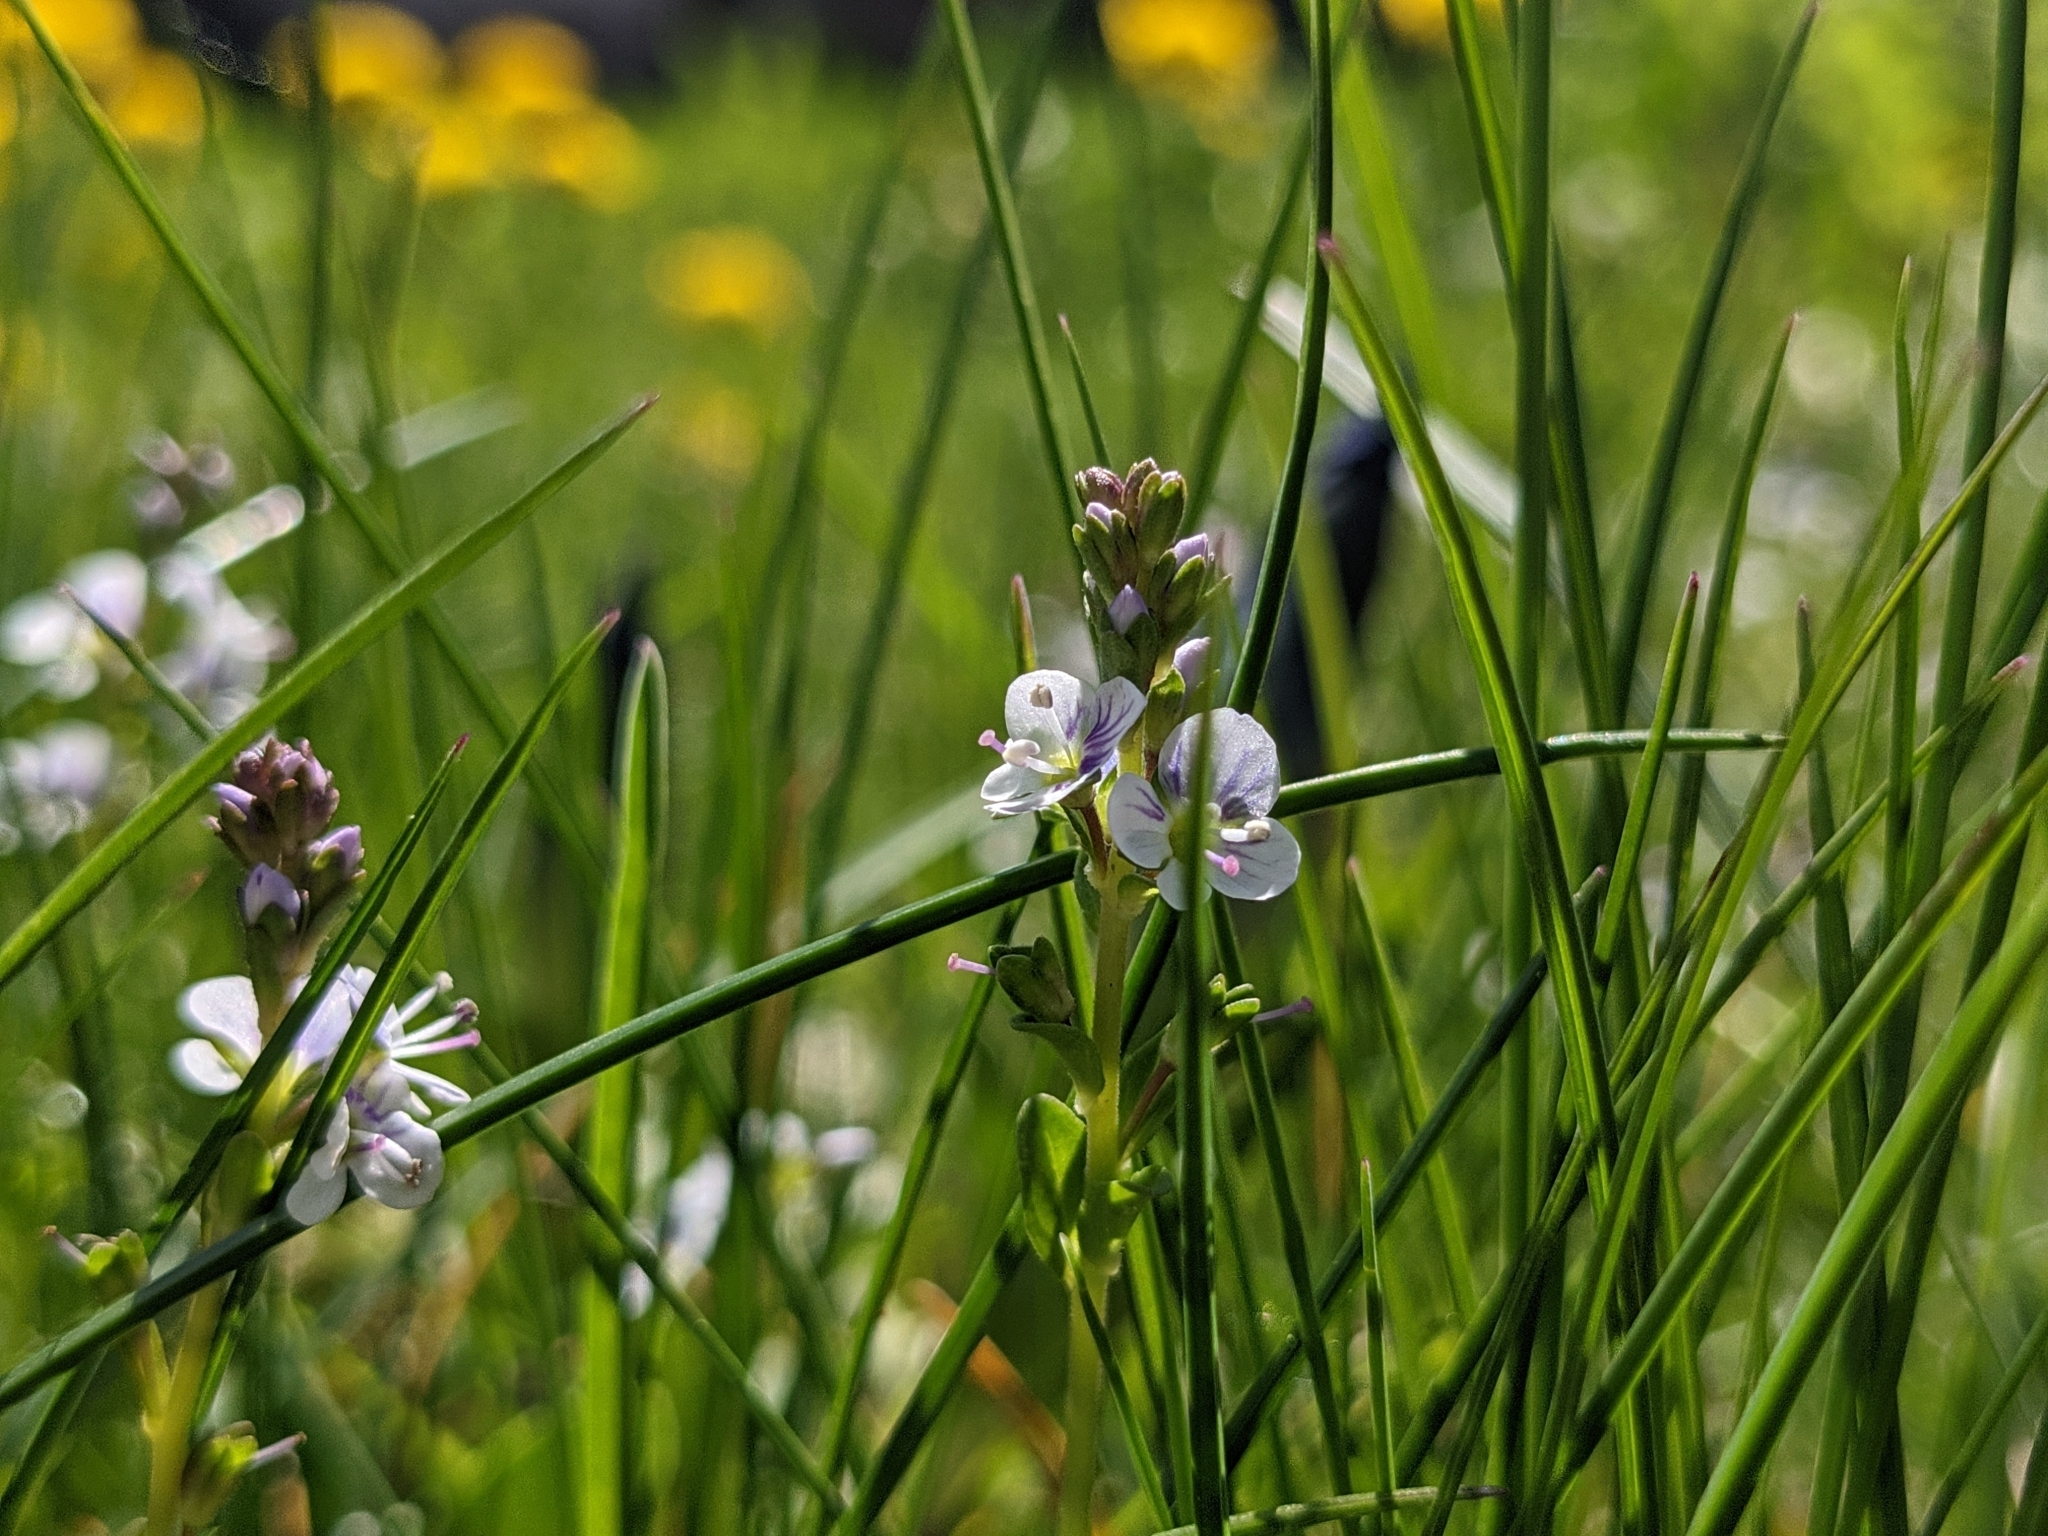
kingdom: Plantae
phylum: Tracheophyta
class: Magnoliopsida
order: Lamiales
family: Plantaginaceae
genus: Veronica
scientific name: Veronica serpyllifolia
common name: Thyme-leaved speedwell
